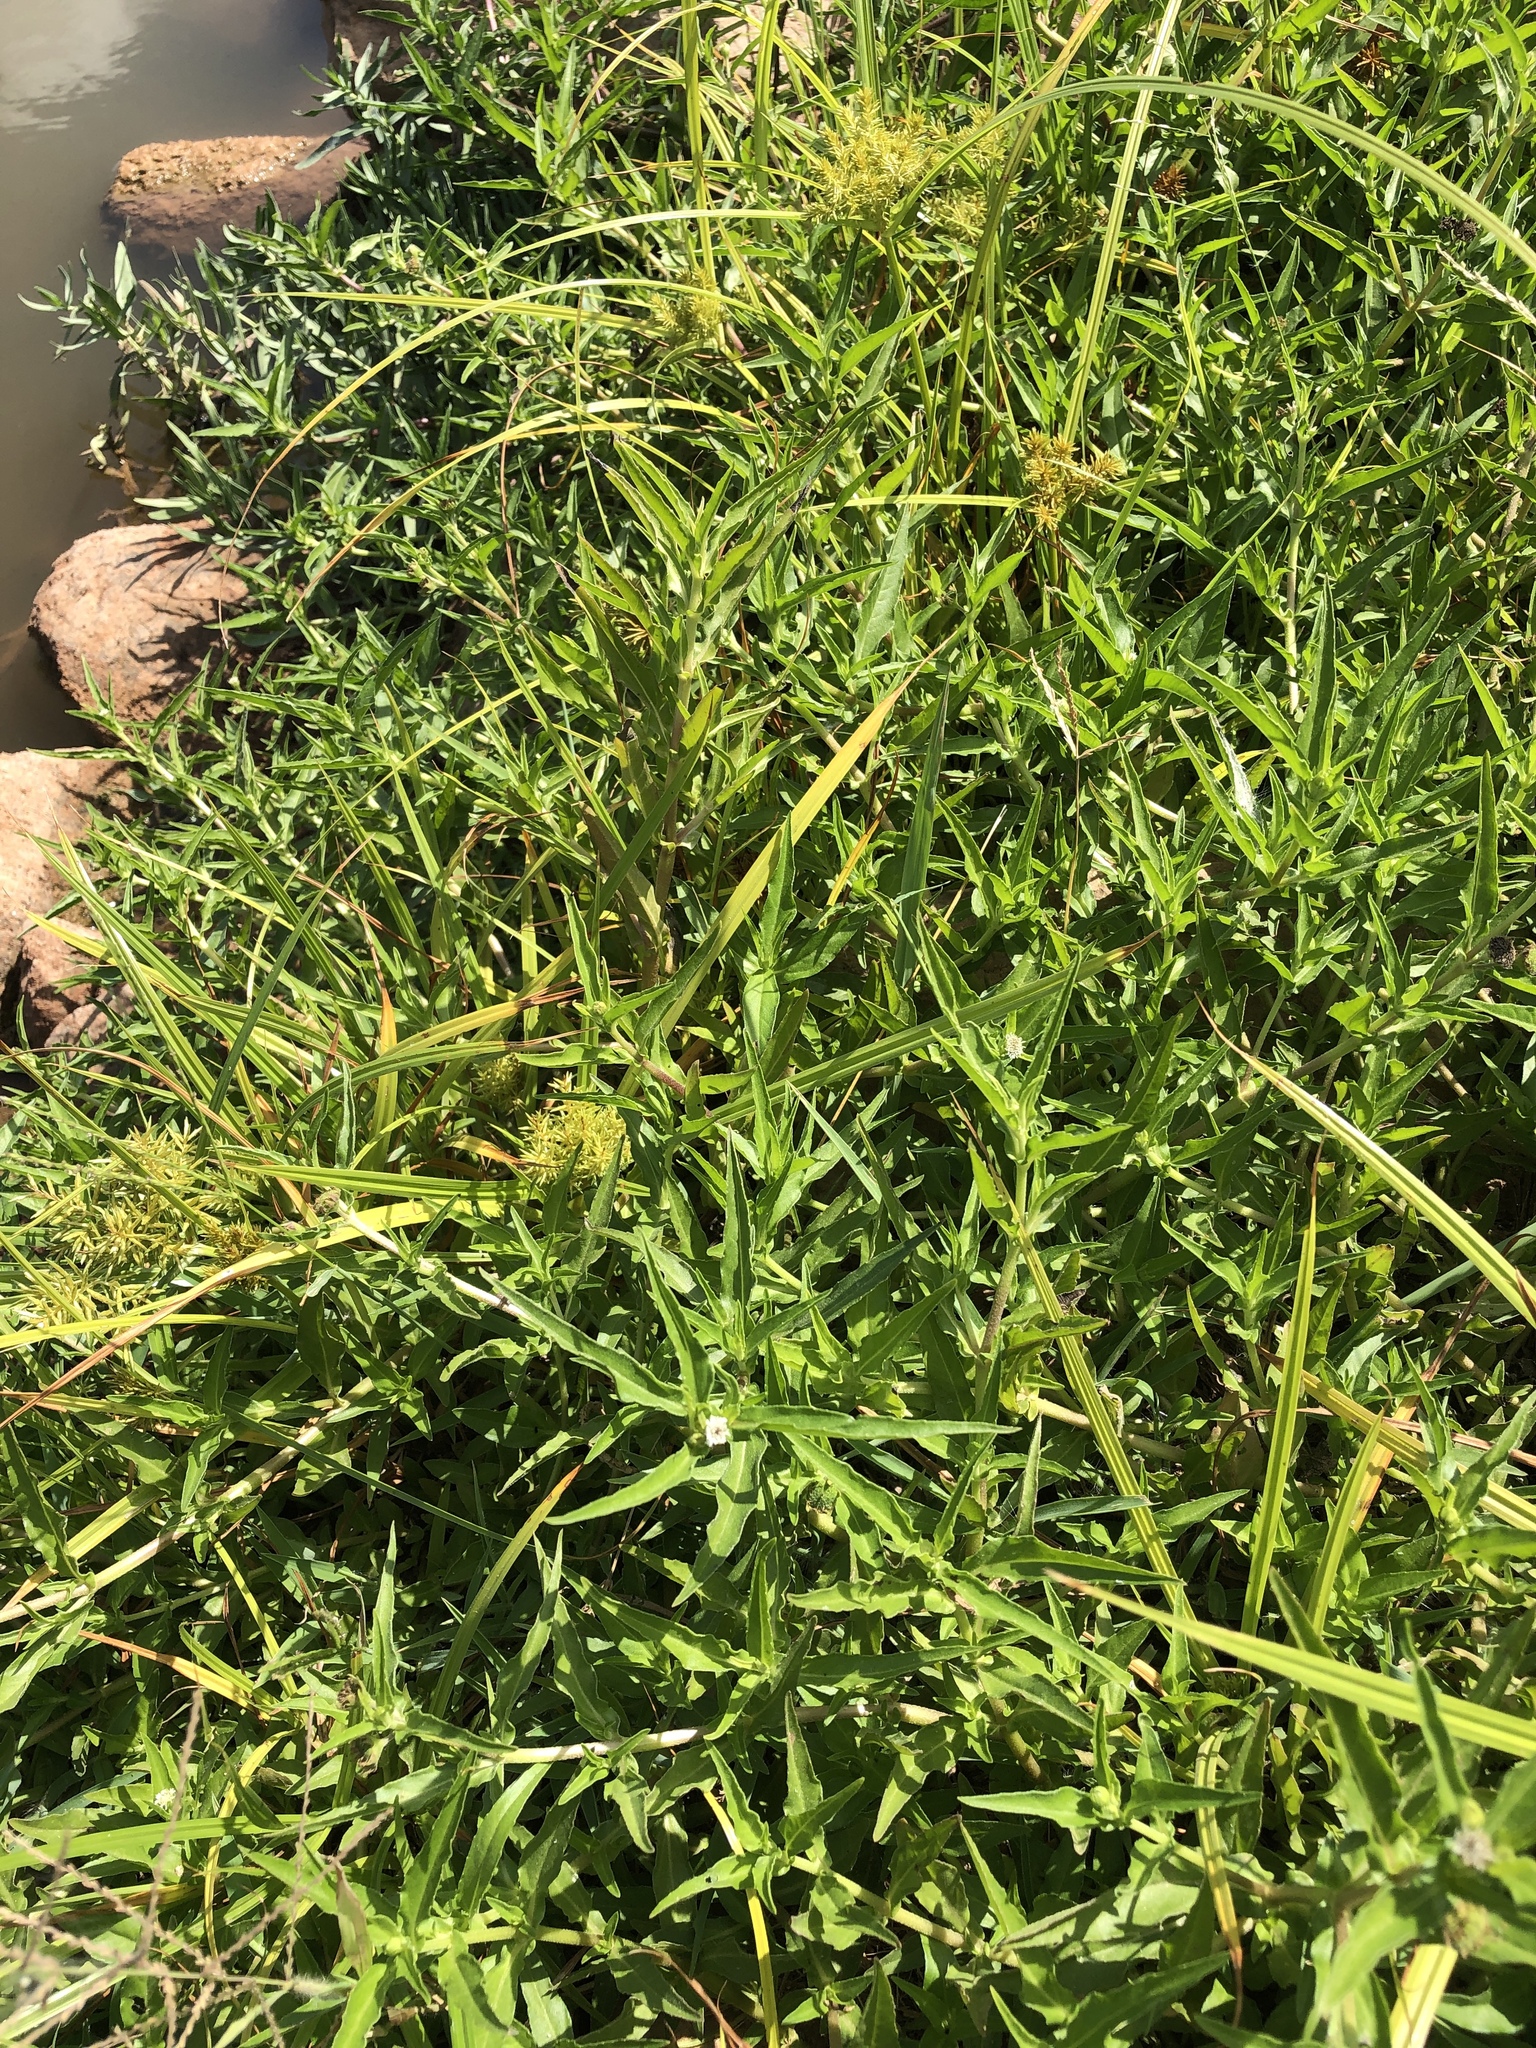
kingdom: Plantae
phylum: Tracheophyta
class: Magnoliopsida
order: Asterales
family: Asteraceae
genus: Eclipta
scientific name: Eclipta prostrata
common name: False daisy
